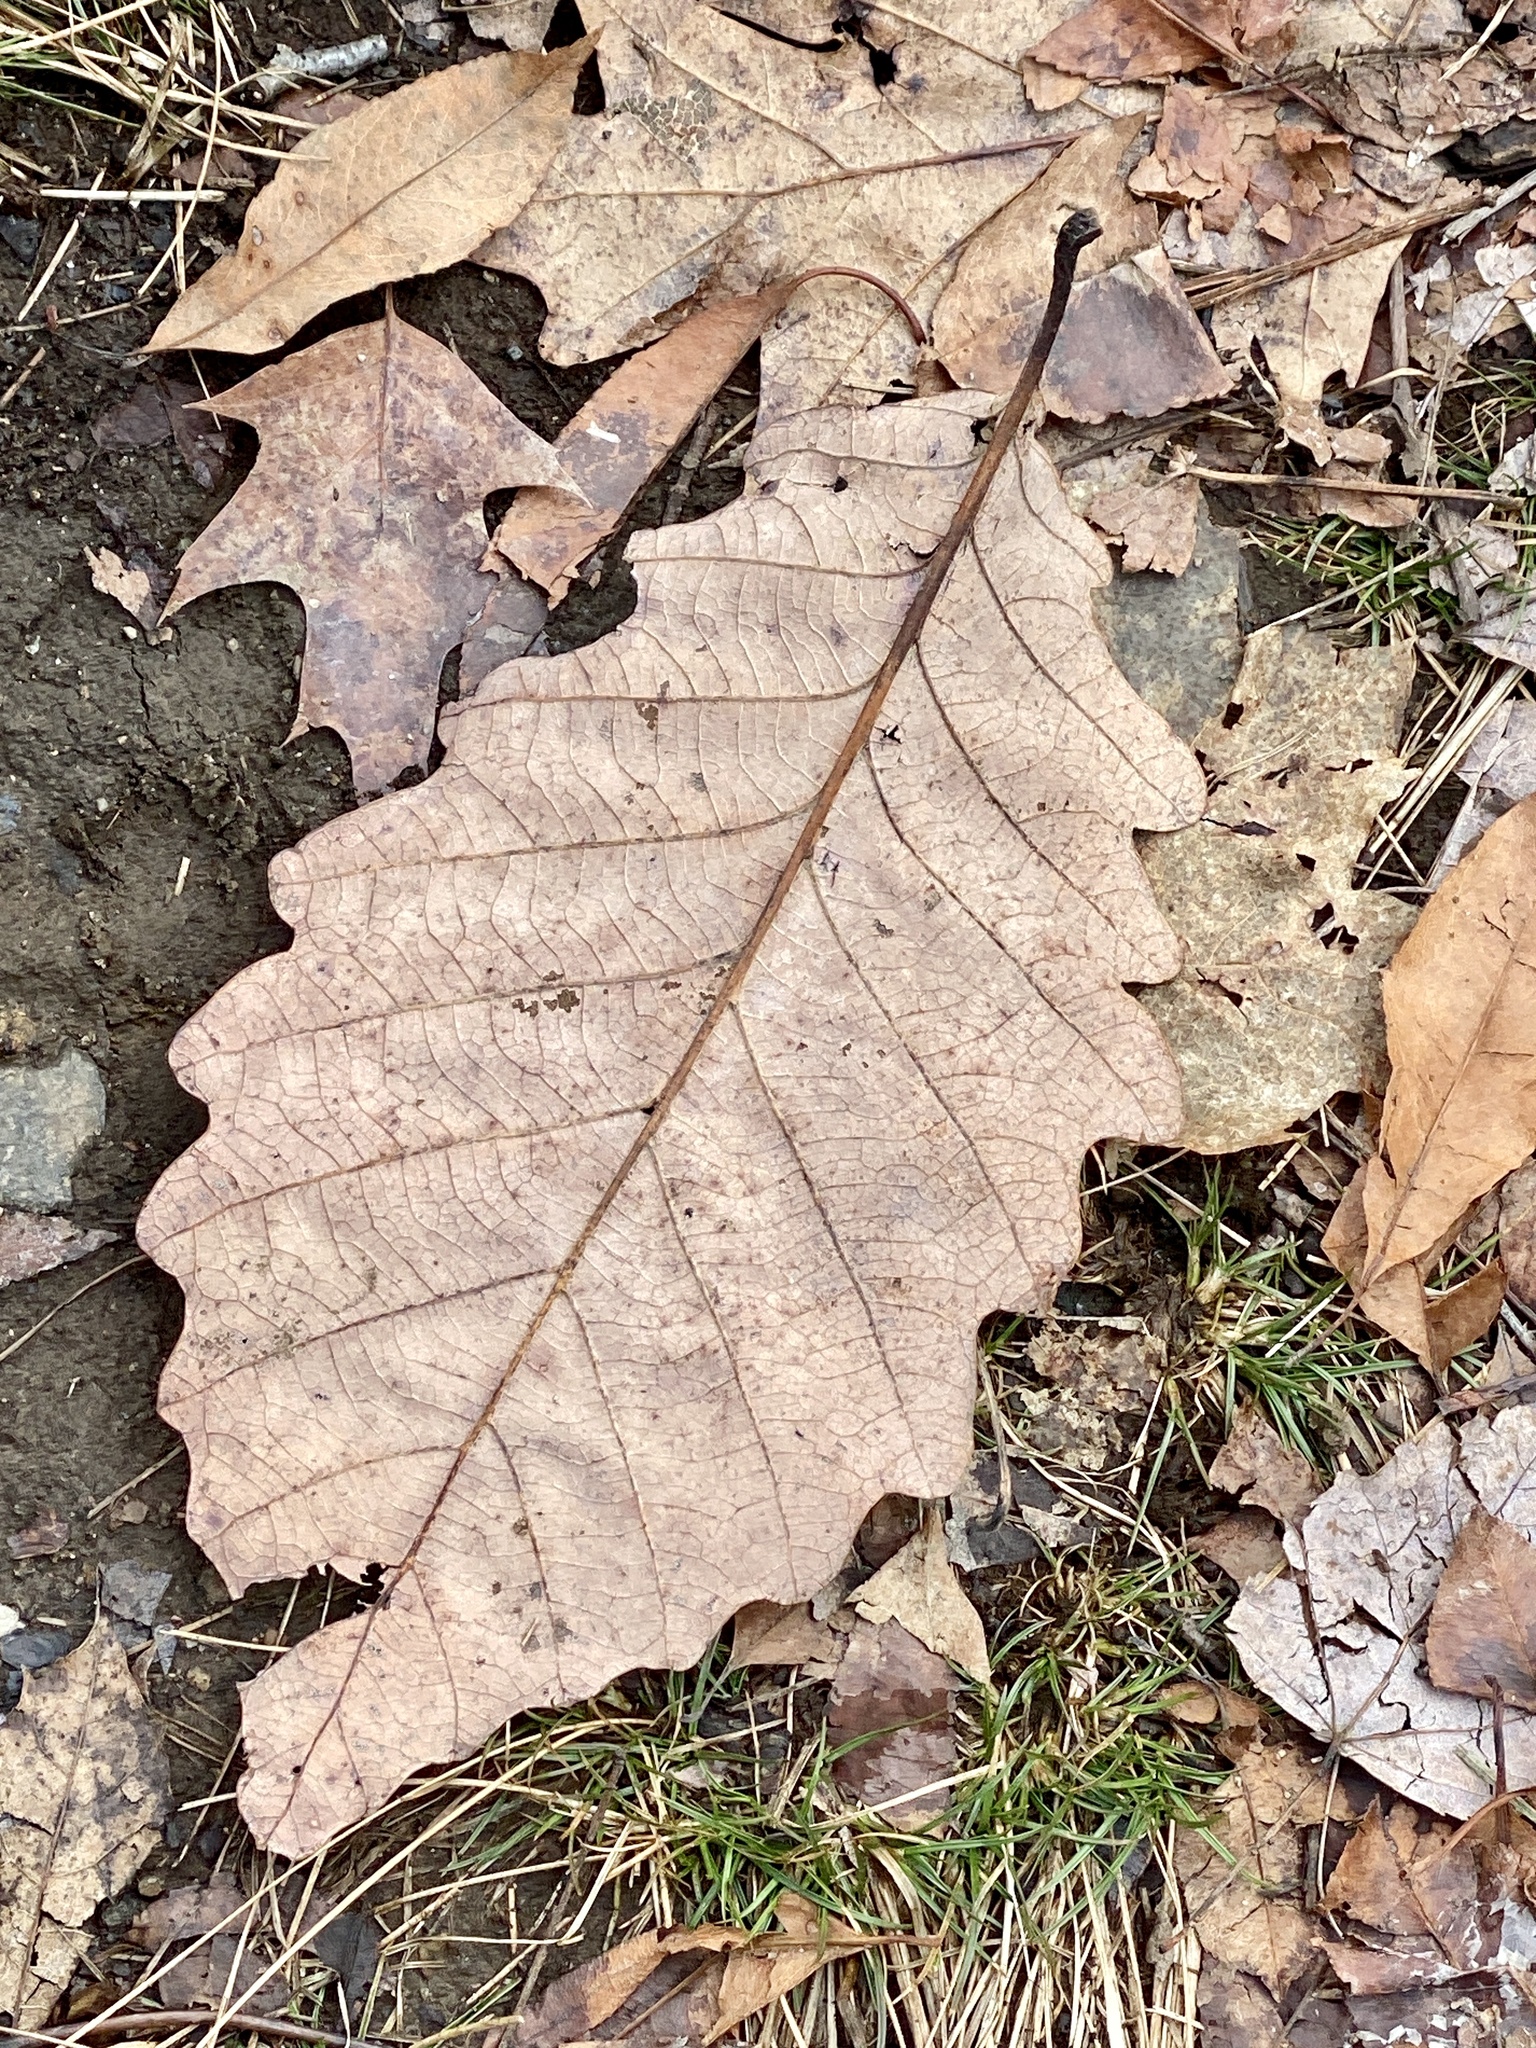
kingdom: Plantae
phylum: Tracheophyta
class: Magnoliopsida
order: Fagales
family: Fagaceae
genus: Quercus
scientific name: Quercus montana
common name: Chestnut oak
